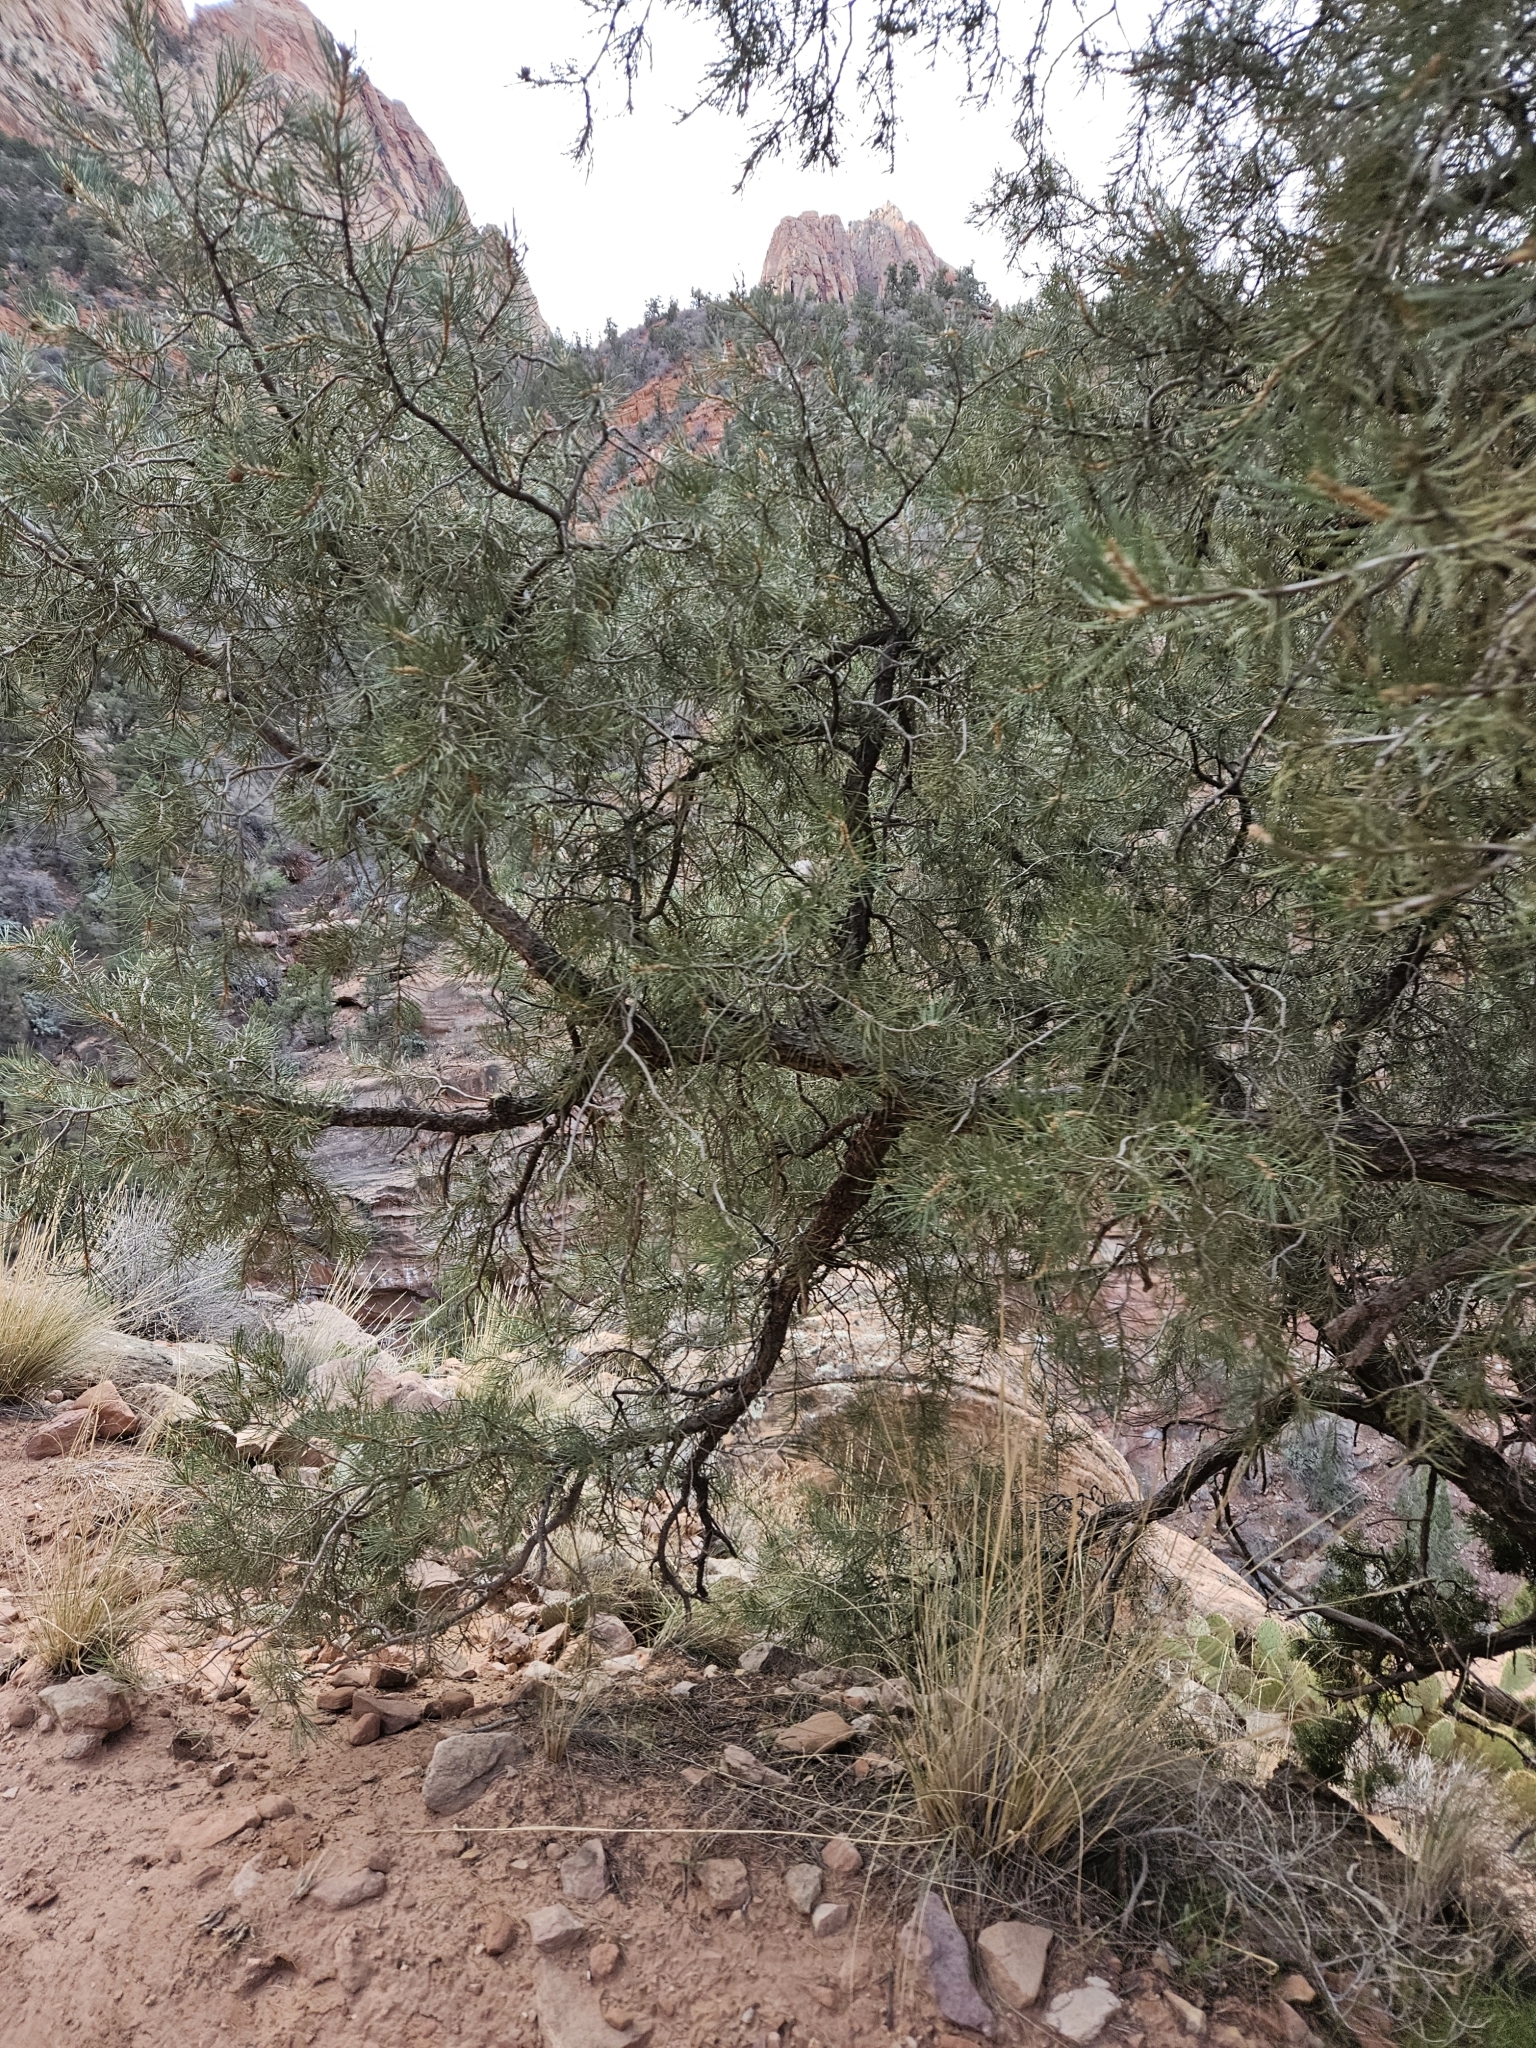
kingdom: Plantae
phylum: Tracheophyta
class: Pinopsida
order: Pinales
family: Pinaceae
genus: Pinus
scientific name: Pinus edulis
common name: Colorado pinyon
